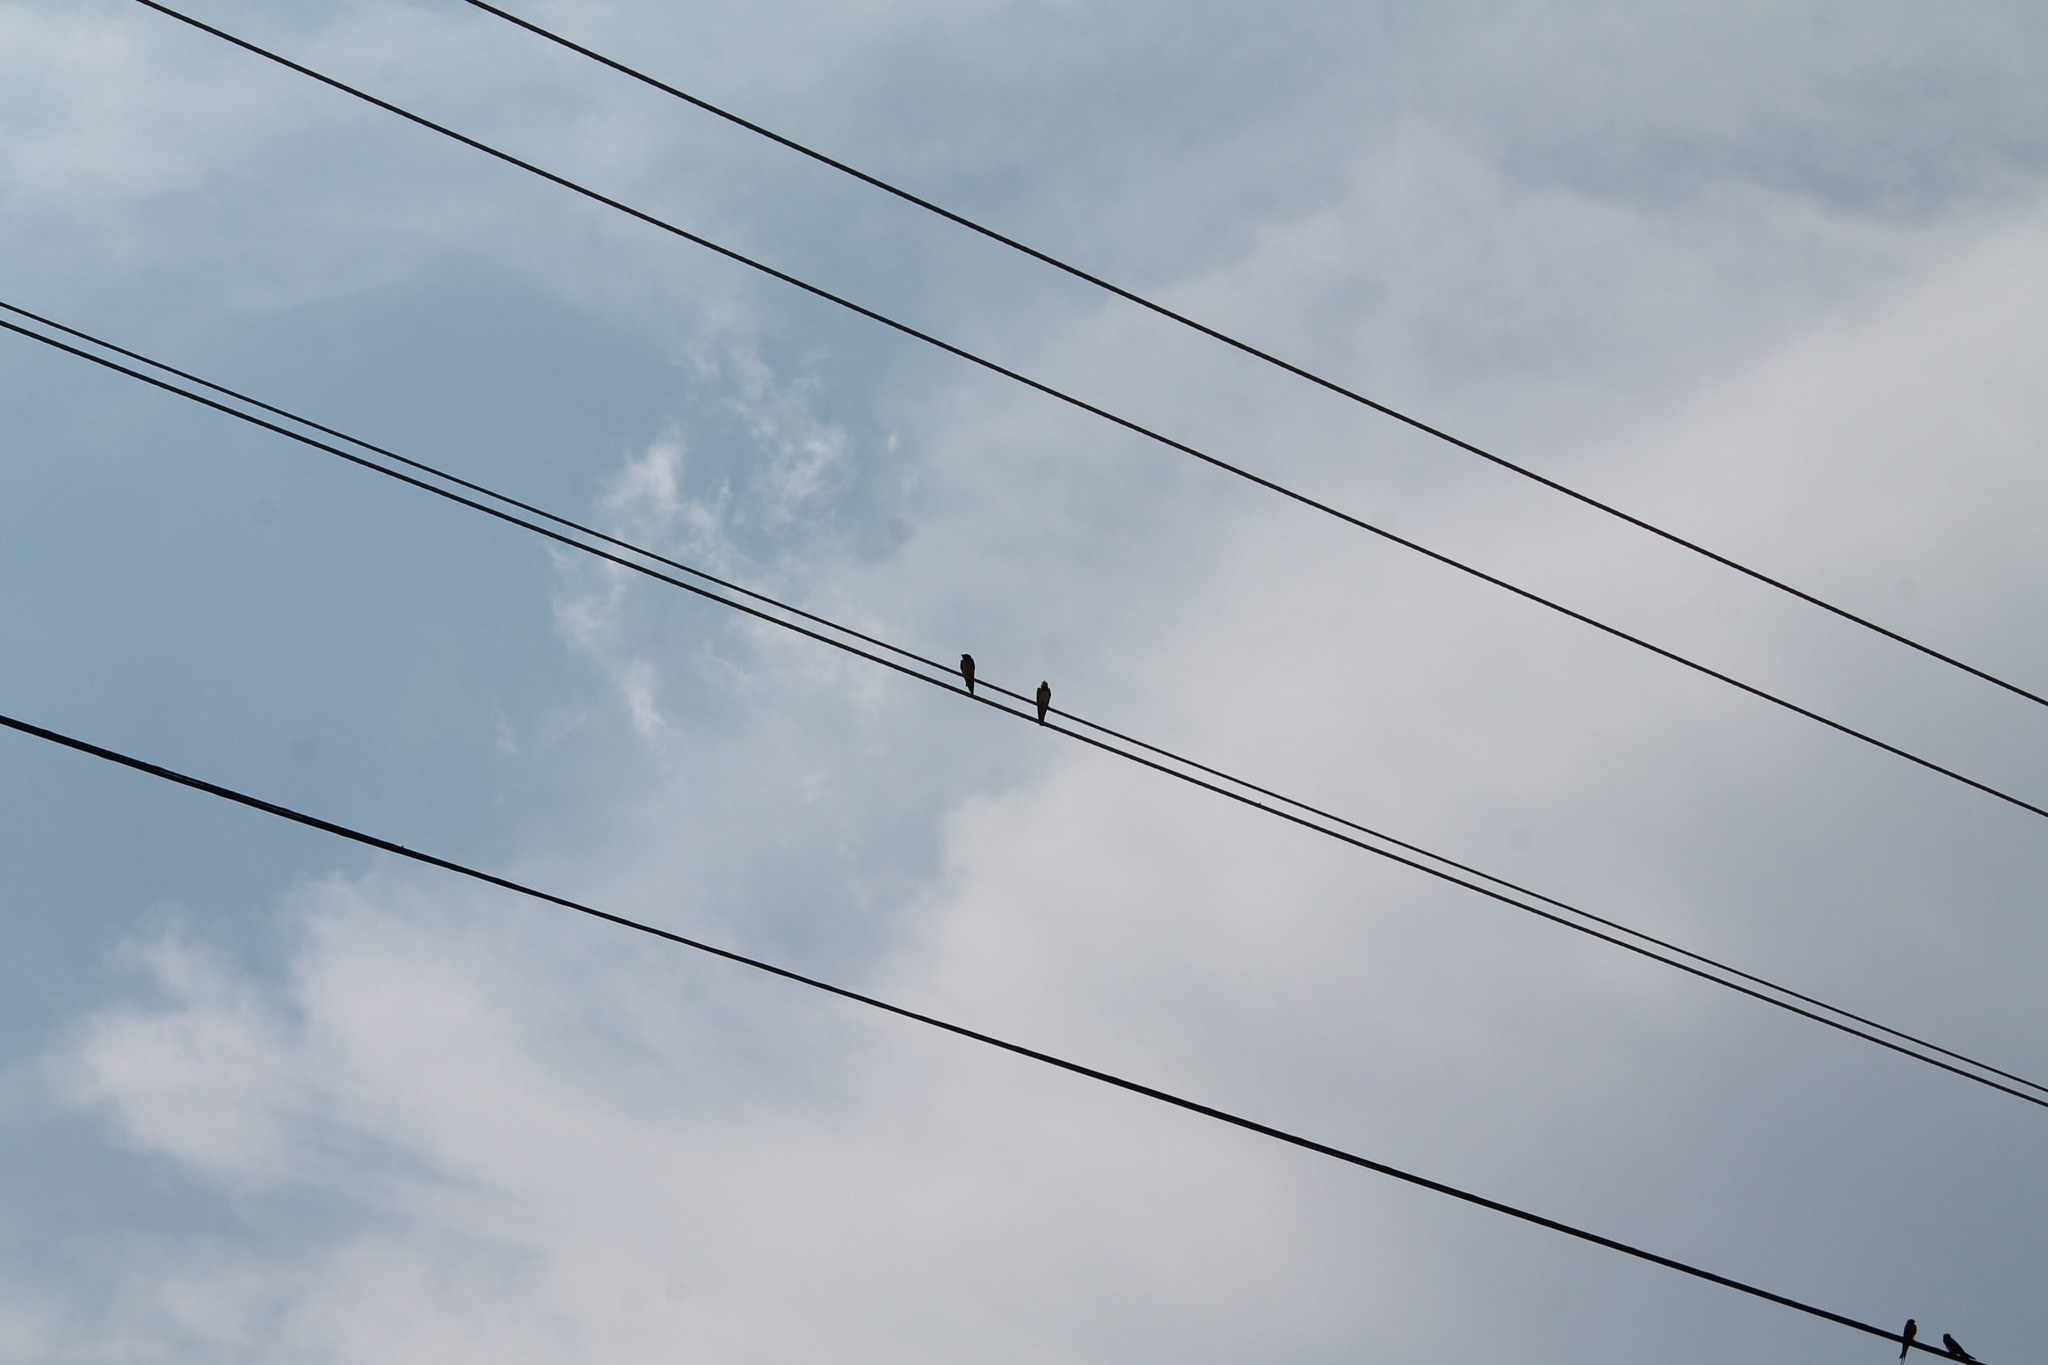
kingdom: Animalia
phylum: Chordata
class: Aves
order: Passeriformes
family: Hirundinidae
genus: Hirundo
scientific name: Hirundo rustica
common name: Barn swallow
